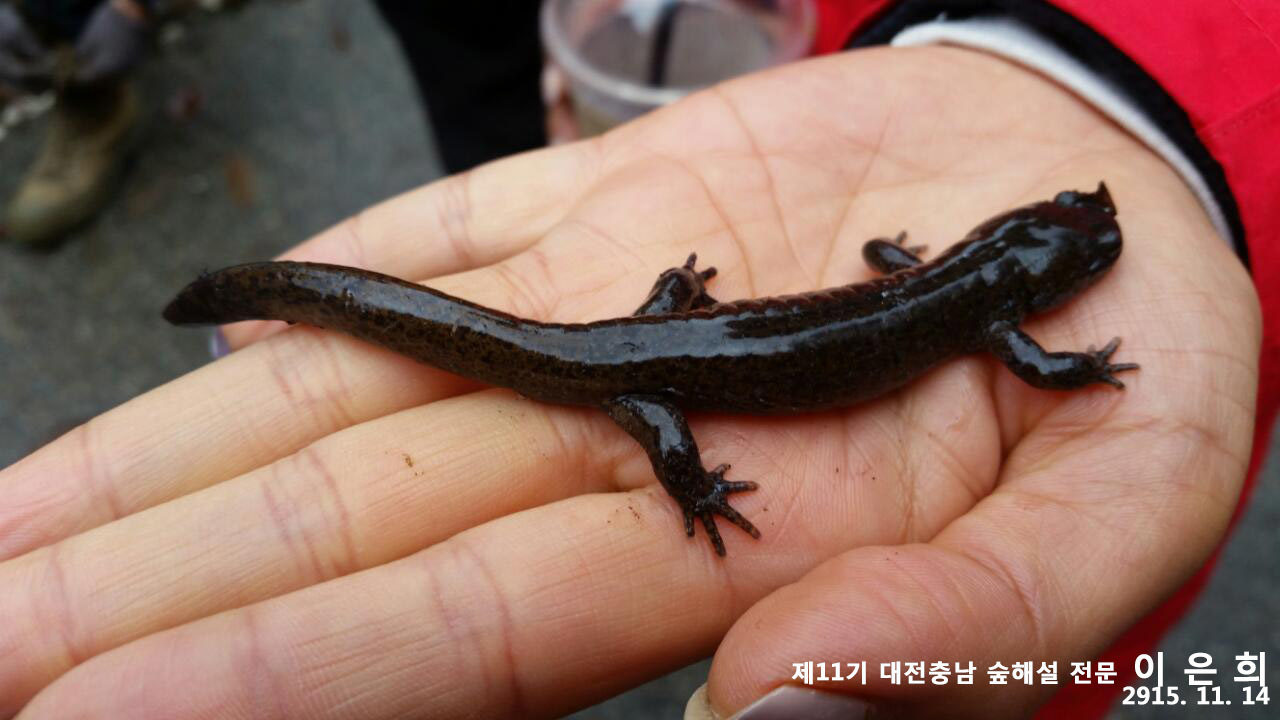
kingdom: Animalia
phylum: Chordata
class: Amphibia
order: Caudata
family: Hynobiidae
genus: Hynobius
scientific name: Hynobius leechii
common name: Gensan salamander
